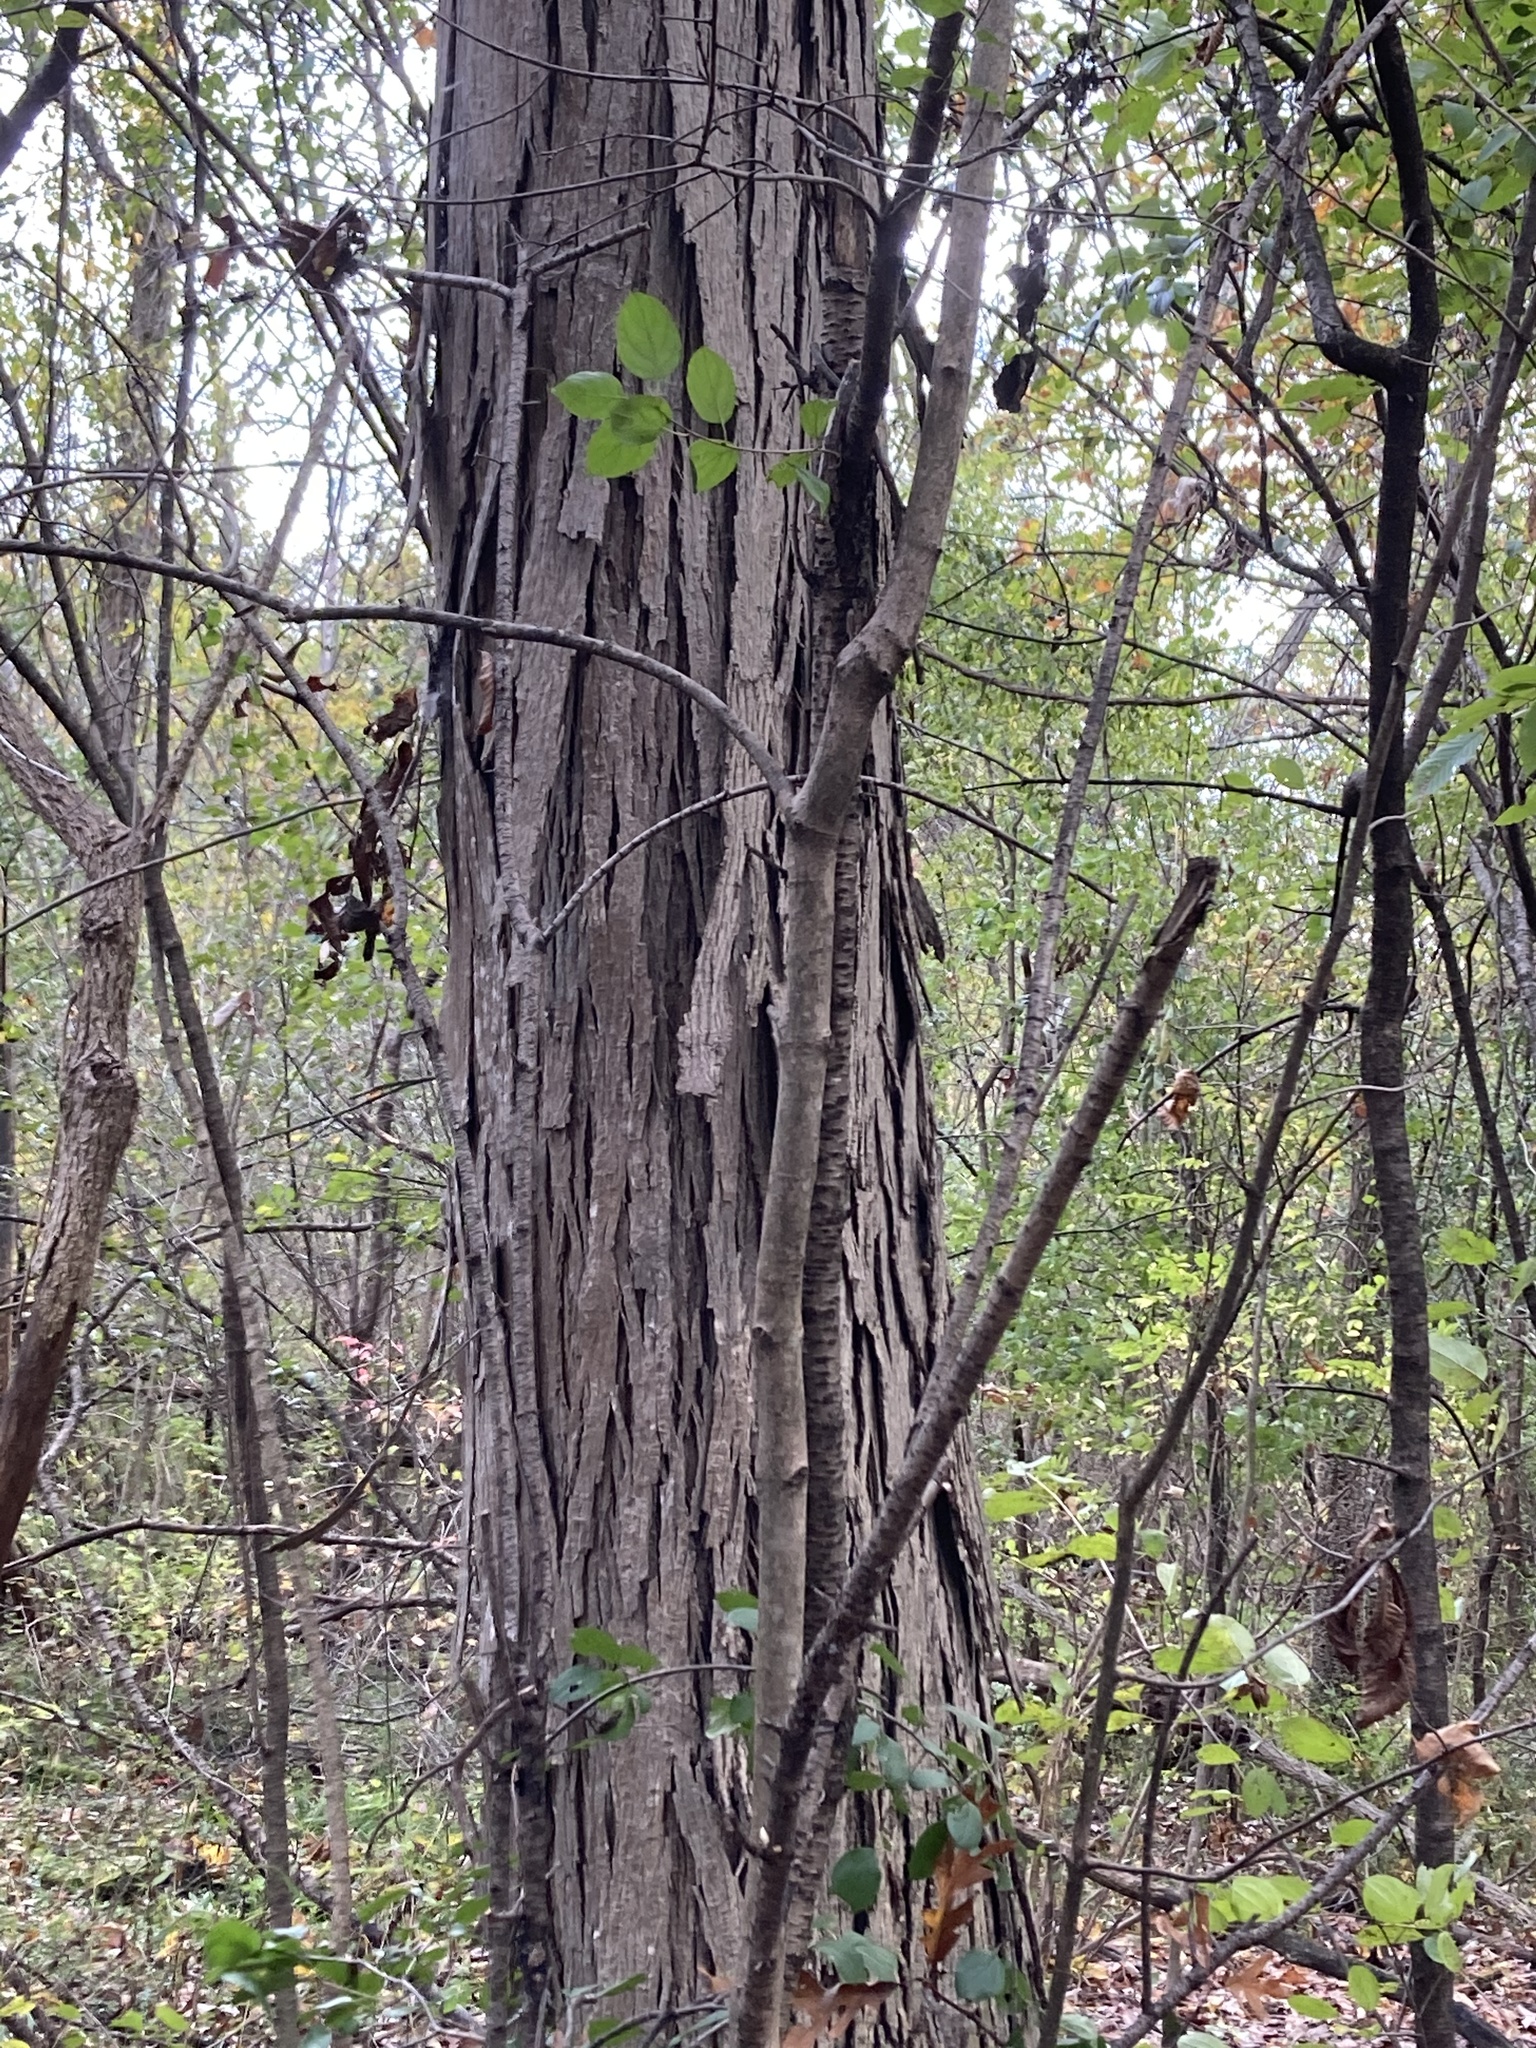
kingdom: Plantae
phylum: Tracheophyta
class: Magnoliopsida
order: Fagales
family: Juglandaceae
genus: Carya
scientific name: Carya ovata
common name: Shagbark hickory
